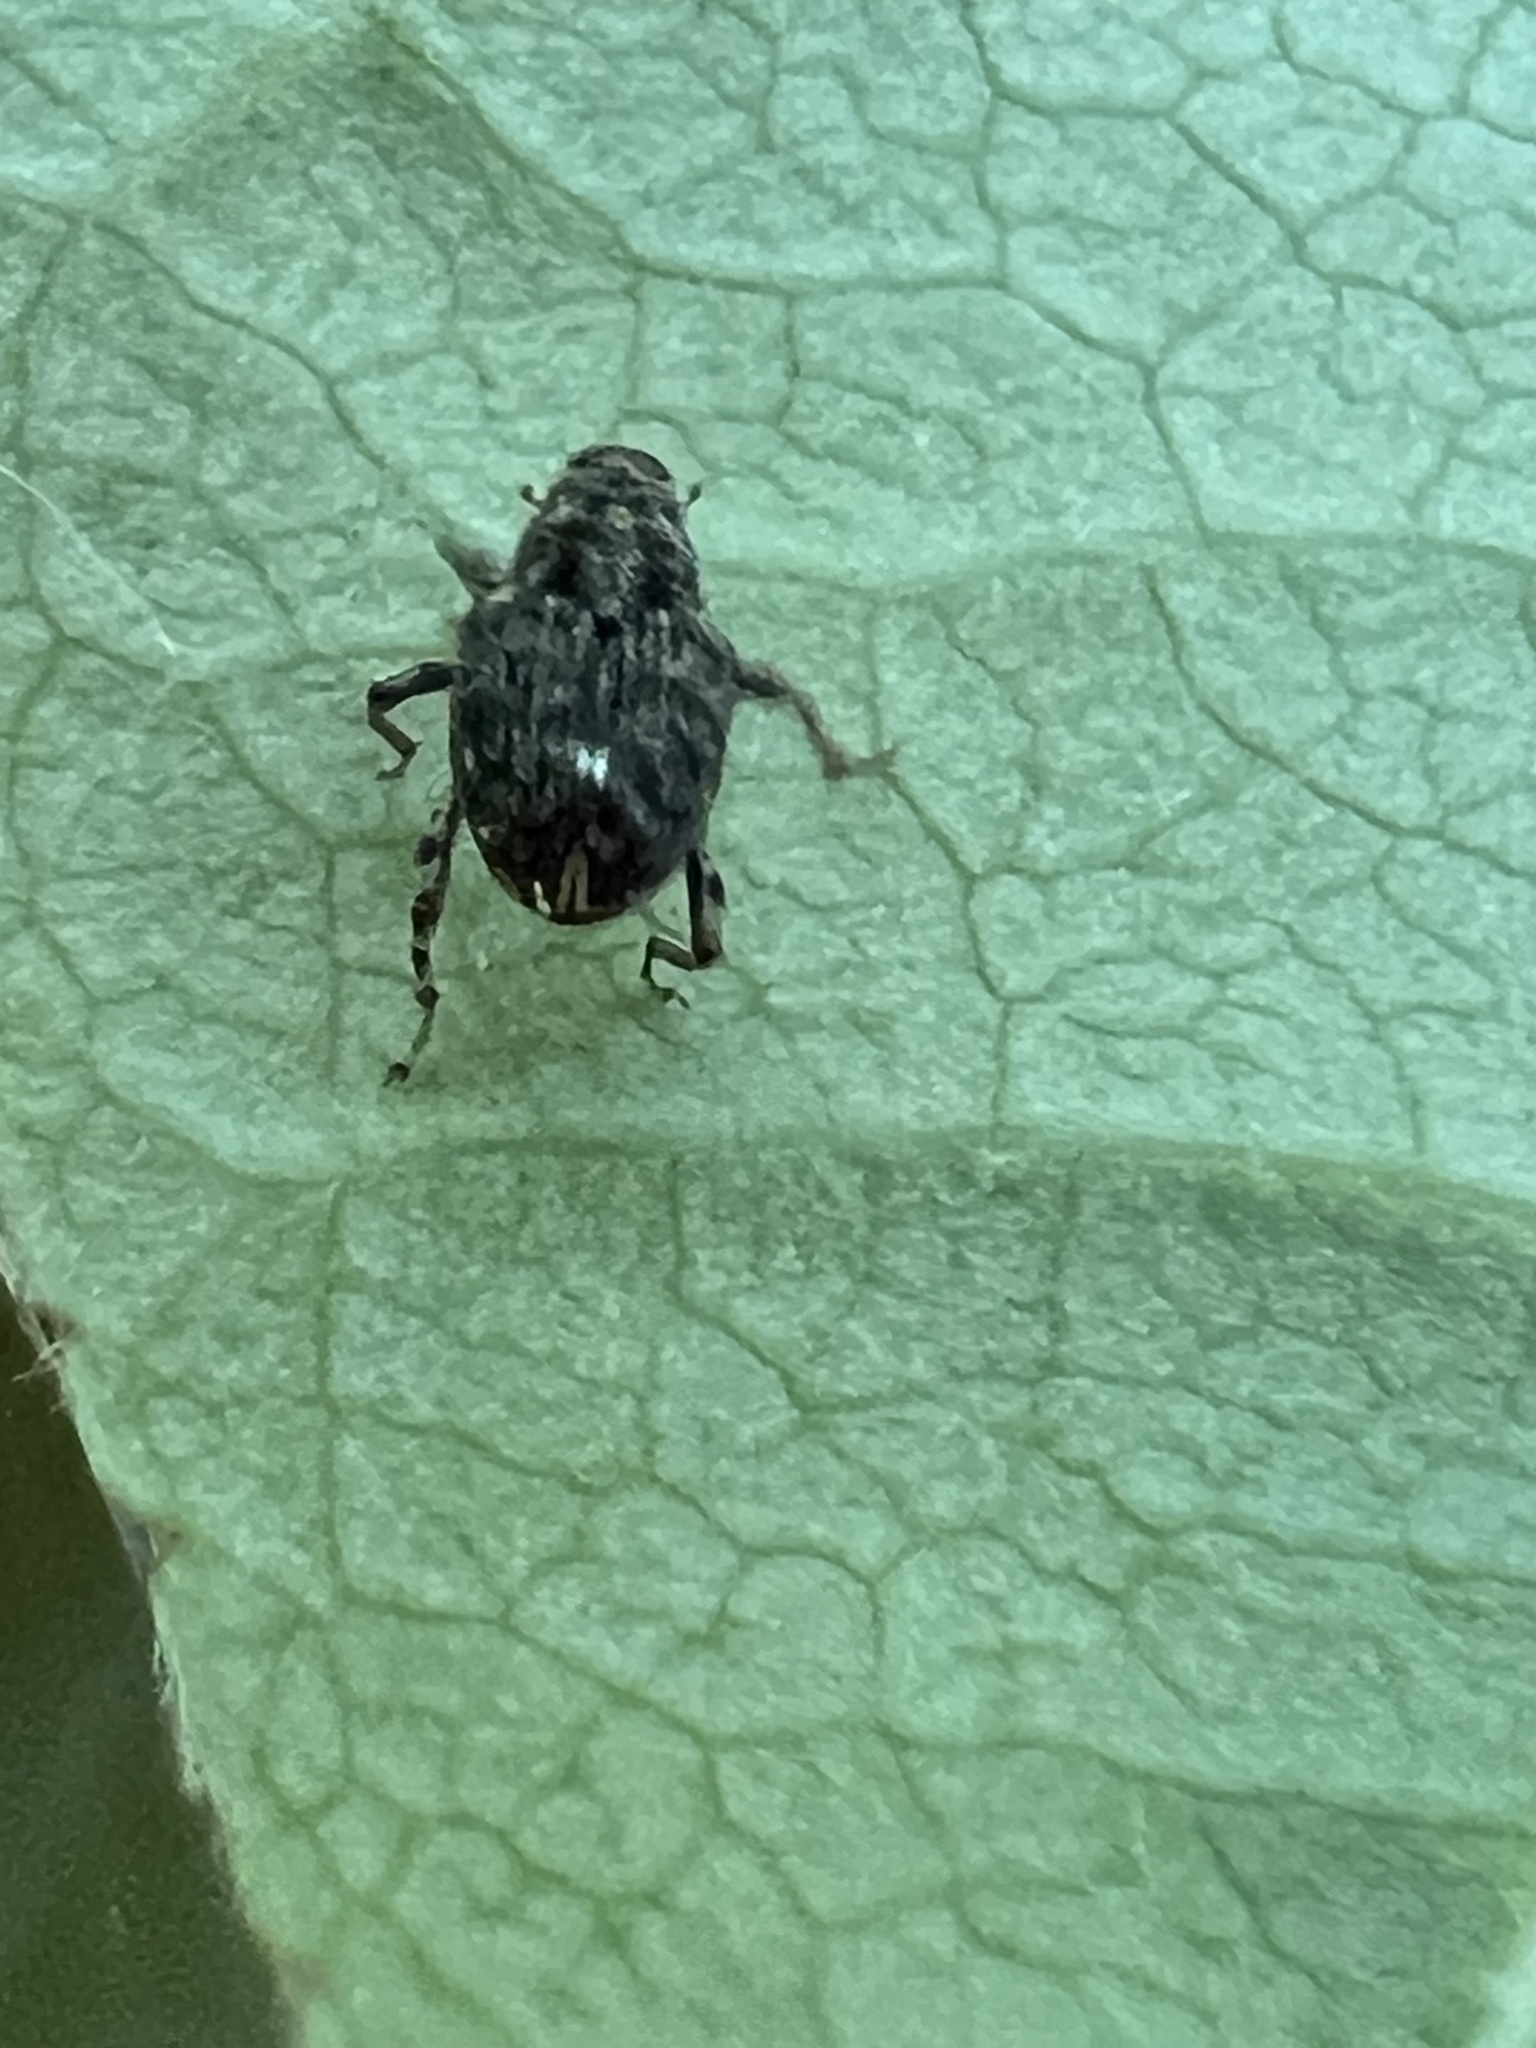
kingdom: Animalia
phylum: Arthropoda
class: Insecta
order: Coleoptera
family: Curculionidae
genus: Lechriops
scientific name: Lechriops oculatus
